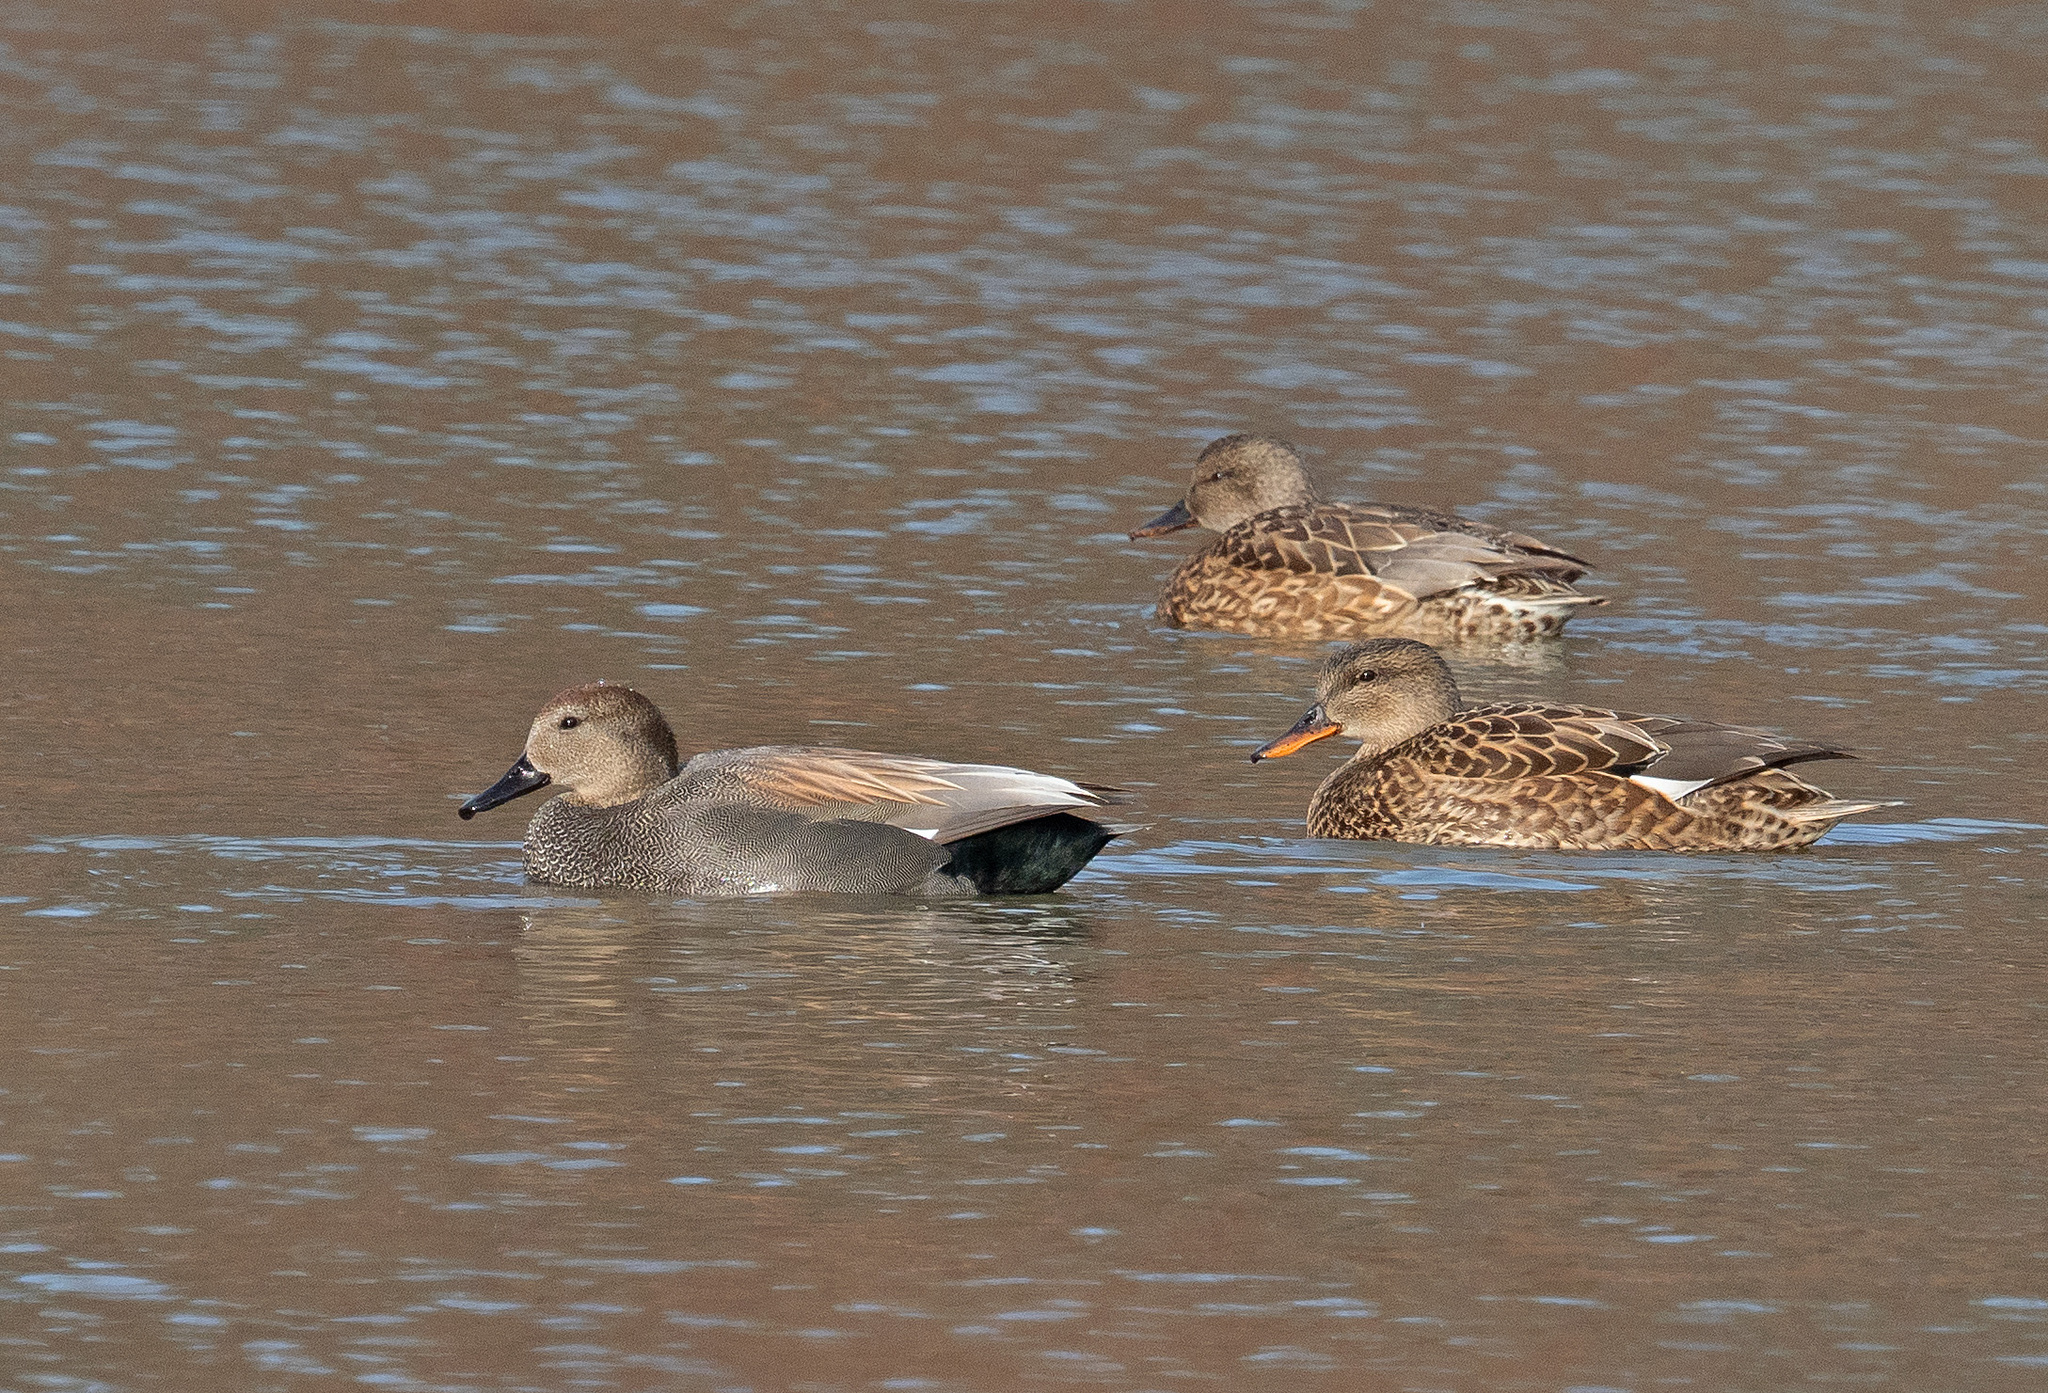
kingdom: Animalia
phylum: Chordata
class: Aves
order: Anseriformes
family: Anatidae
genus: Mareca
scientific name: Mareca strepera
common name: Gadwall
